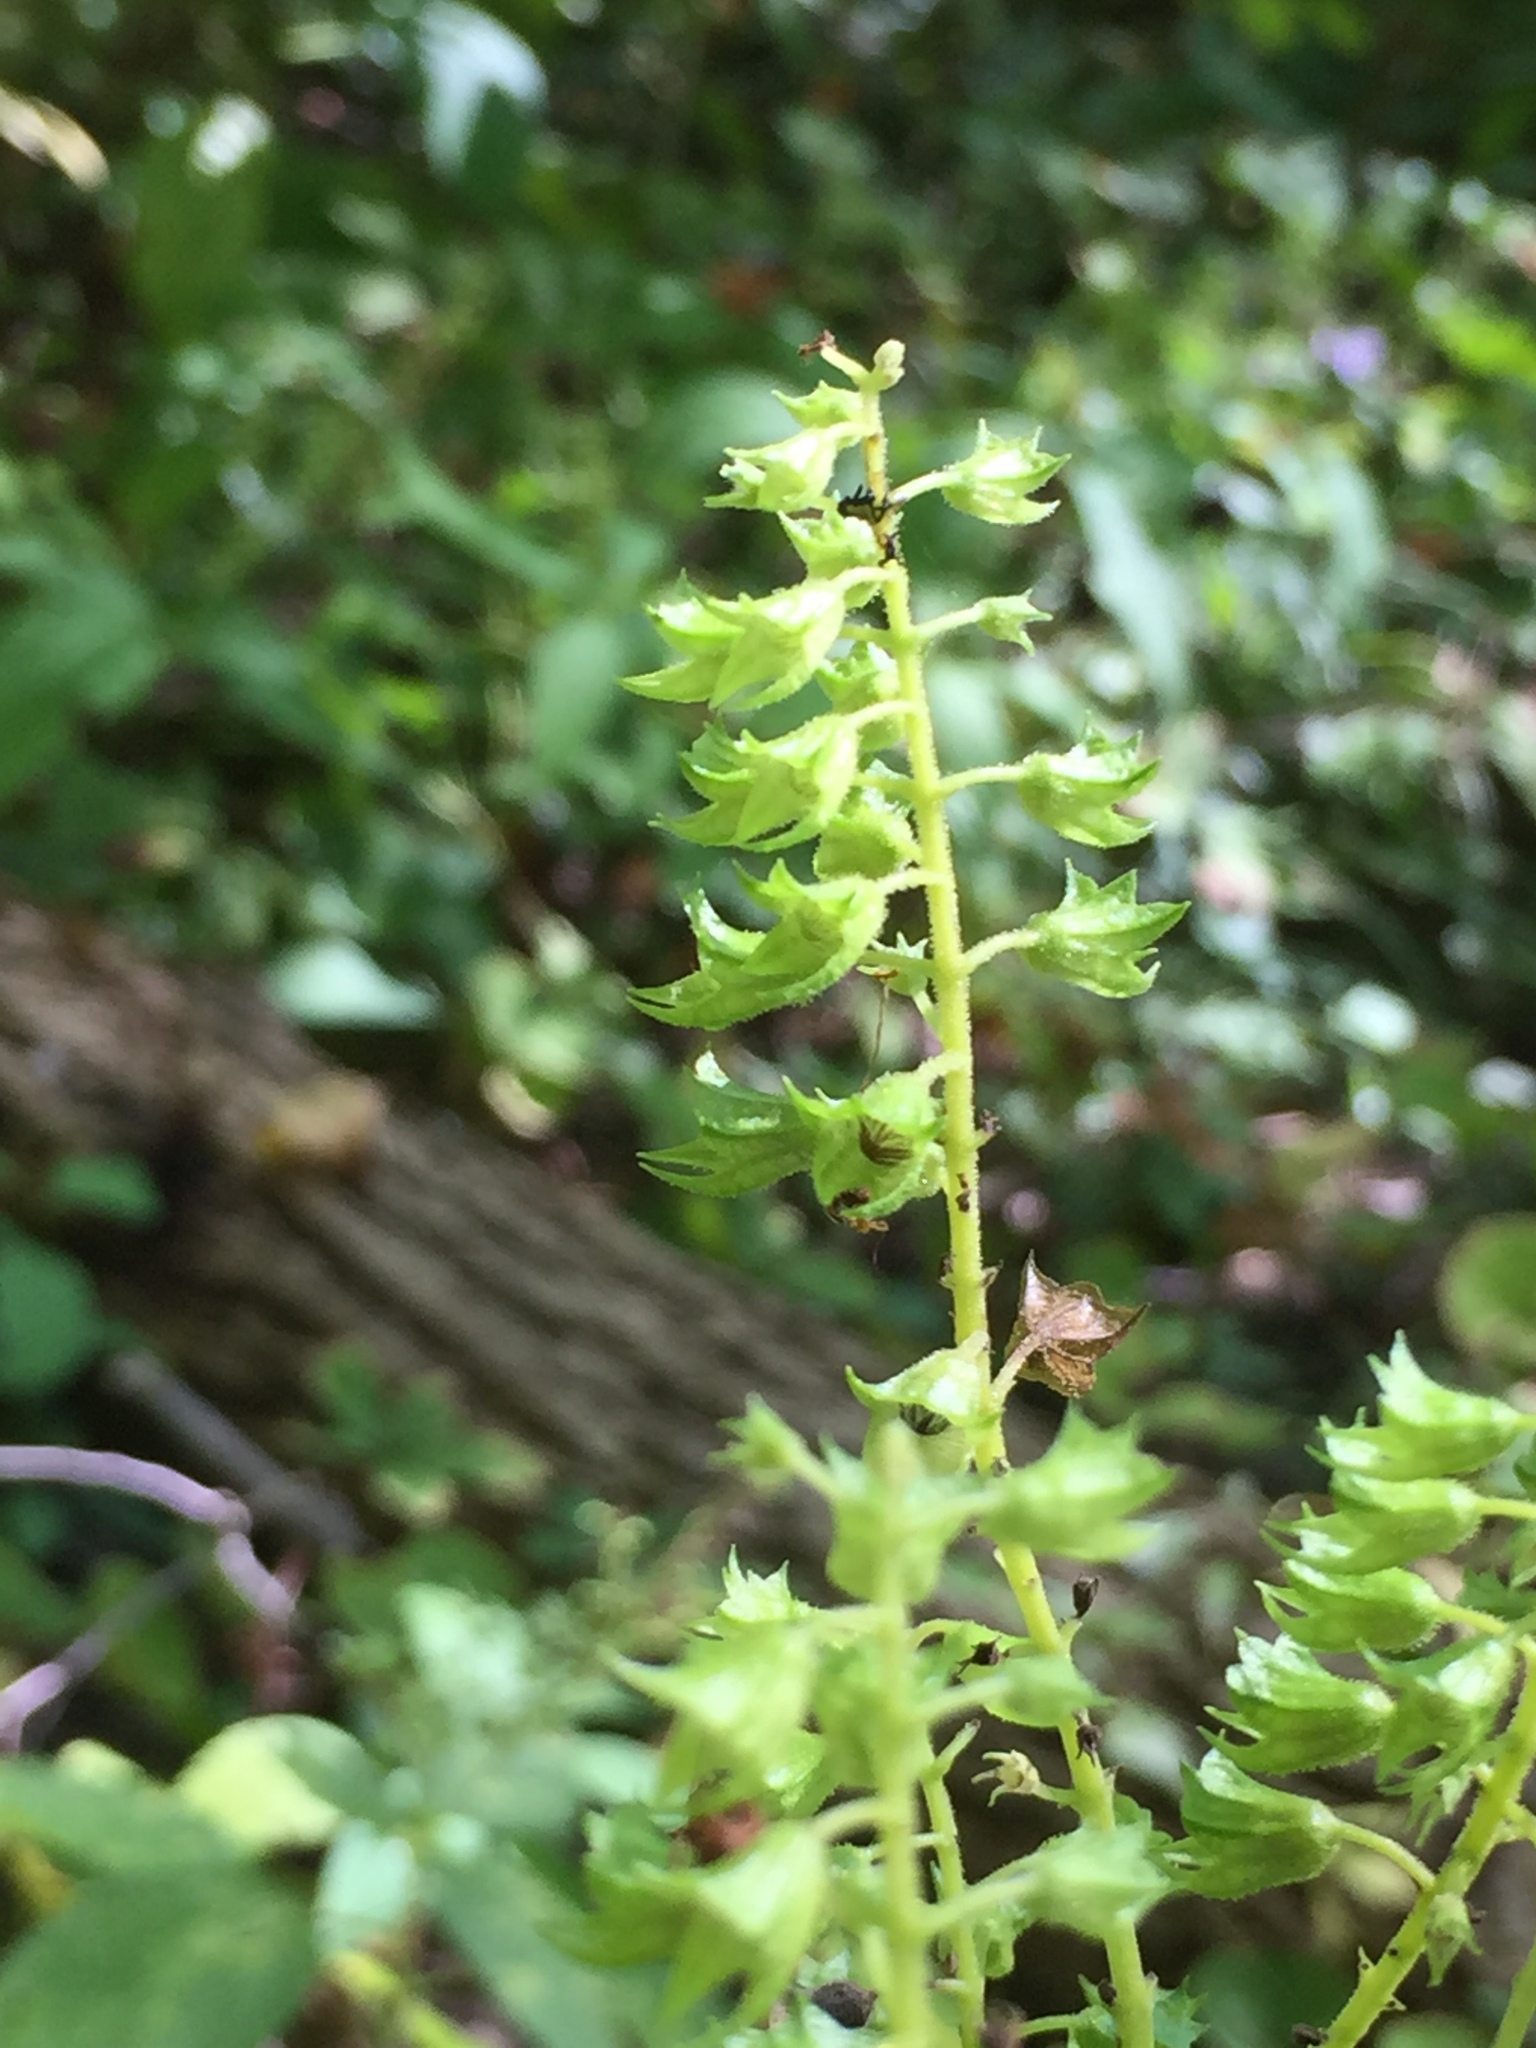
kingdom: Plantae
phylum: Tracheophyta
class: Magnoliopsida
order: Lamiales
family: Lamiaceae
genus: Collinsonia
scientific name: Collinsonia canadensis
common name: Northern horsebalm
